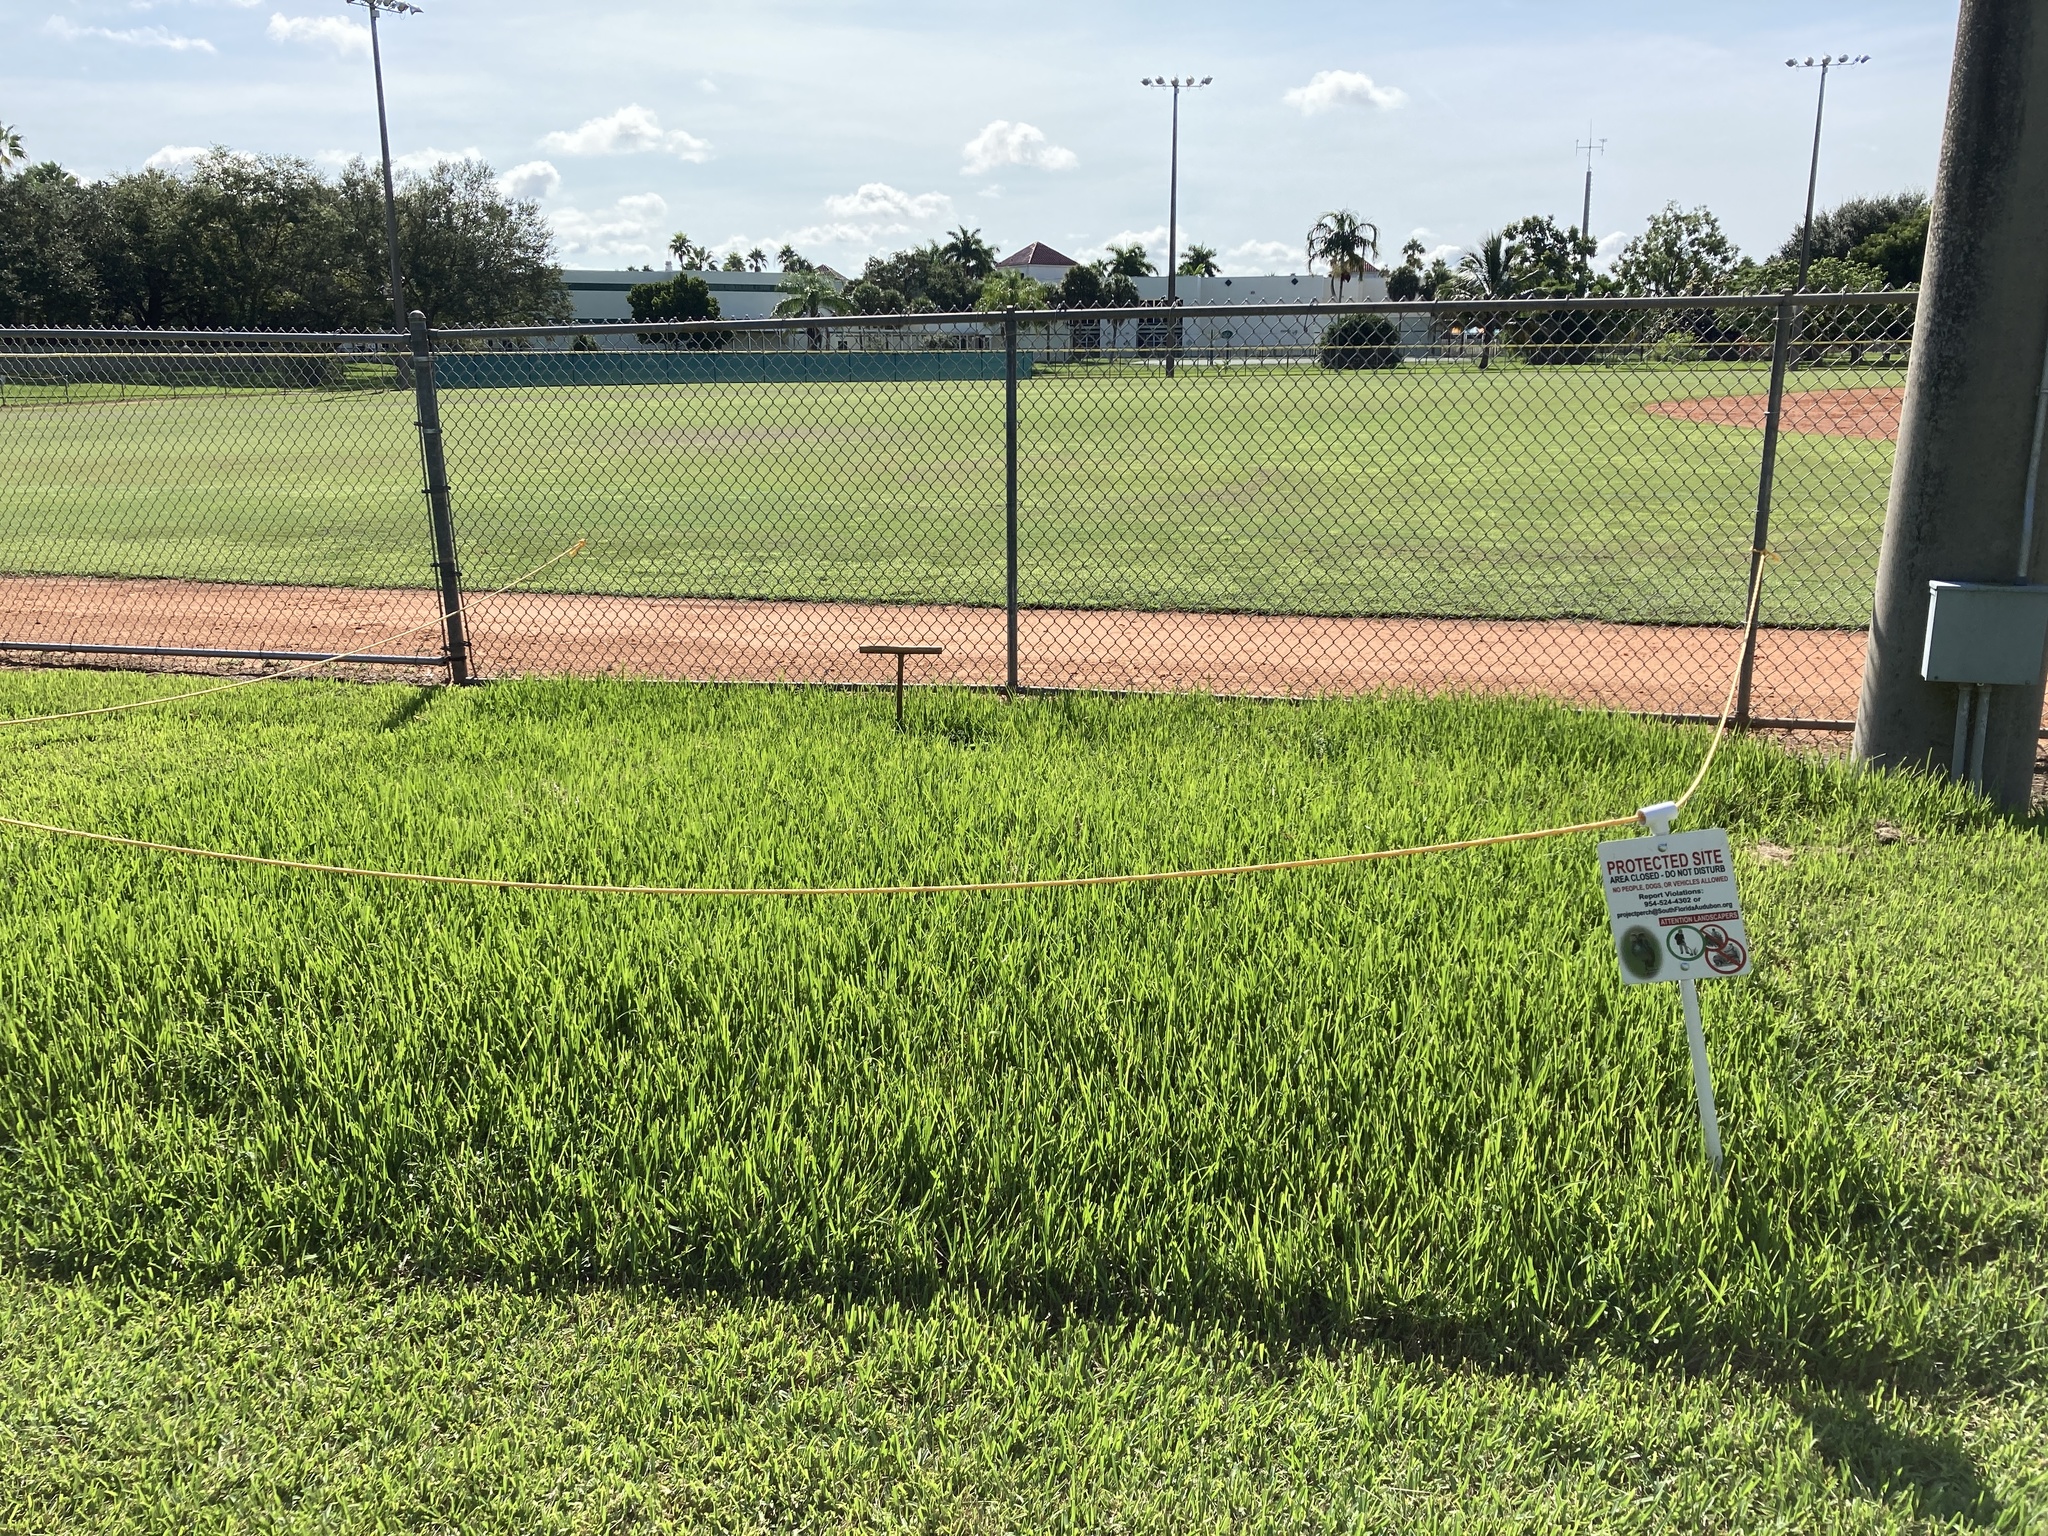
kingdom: Animalia
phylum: Chordata
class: Aves
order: Strigiformes
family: Strigidae
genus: Athene
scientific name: Athene cunicularia
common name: Burrowing owl
